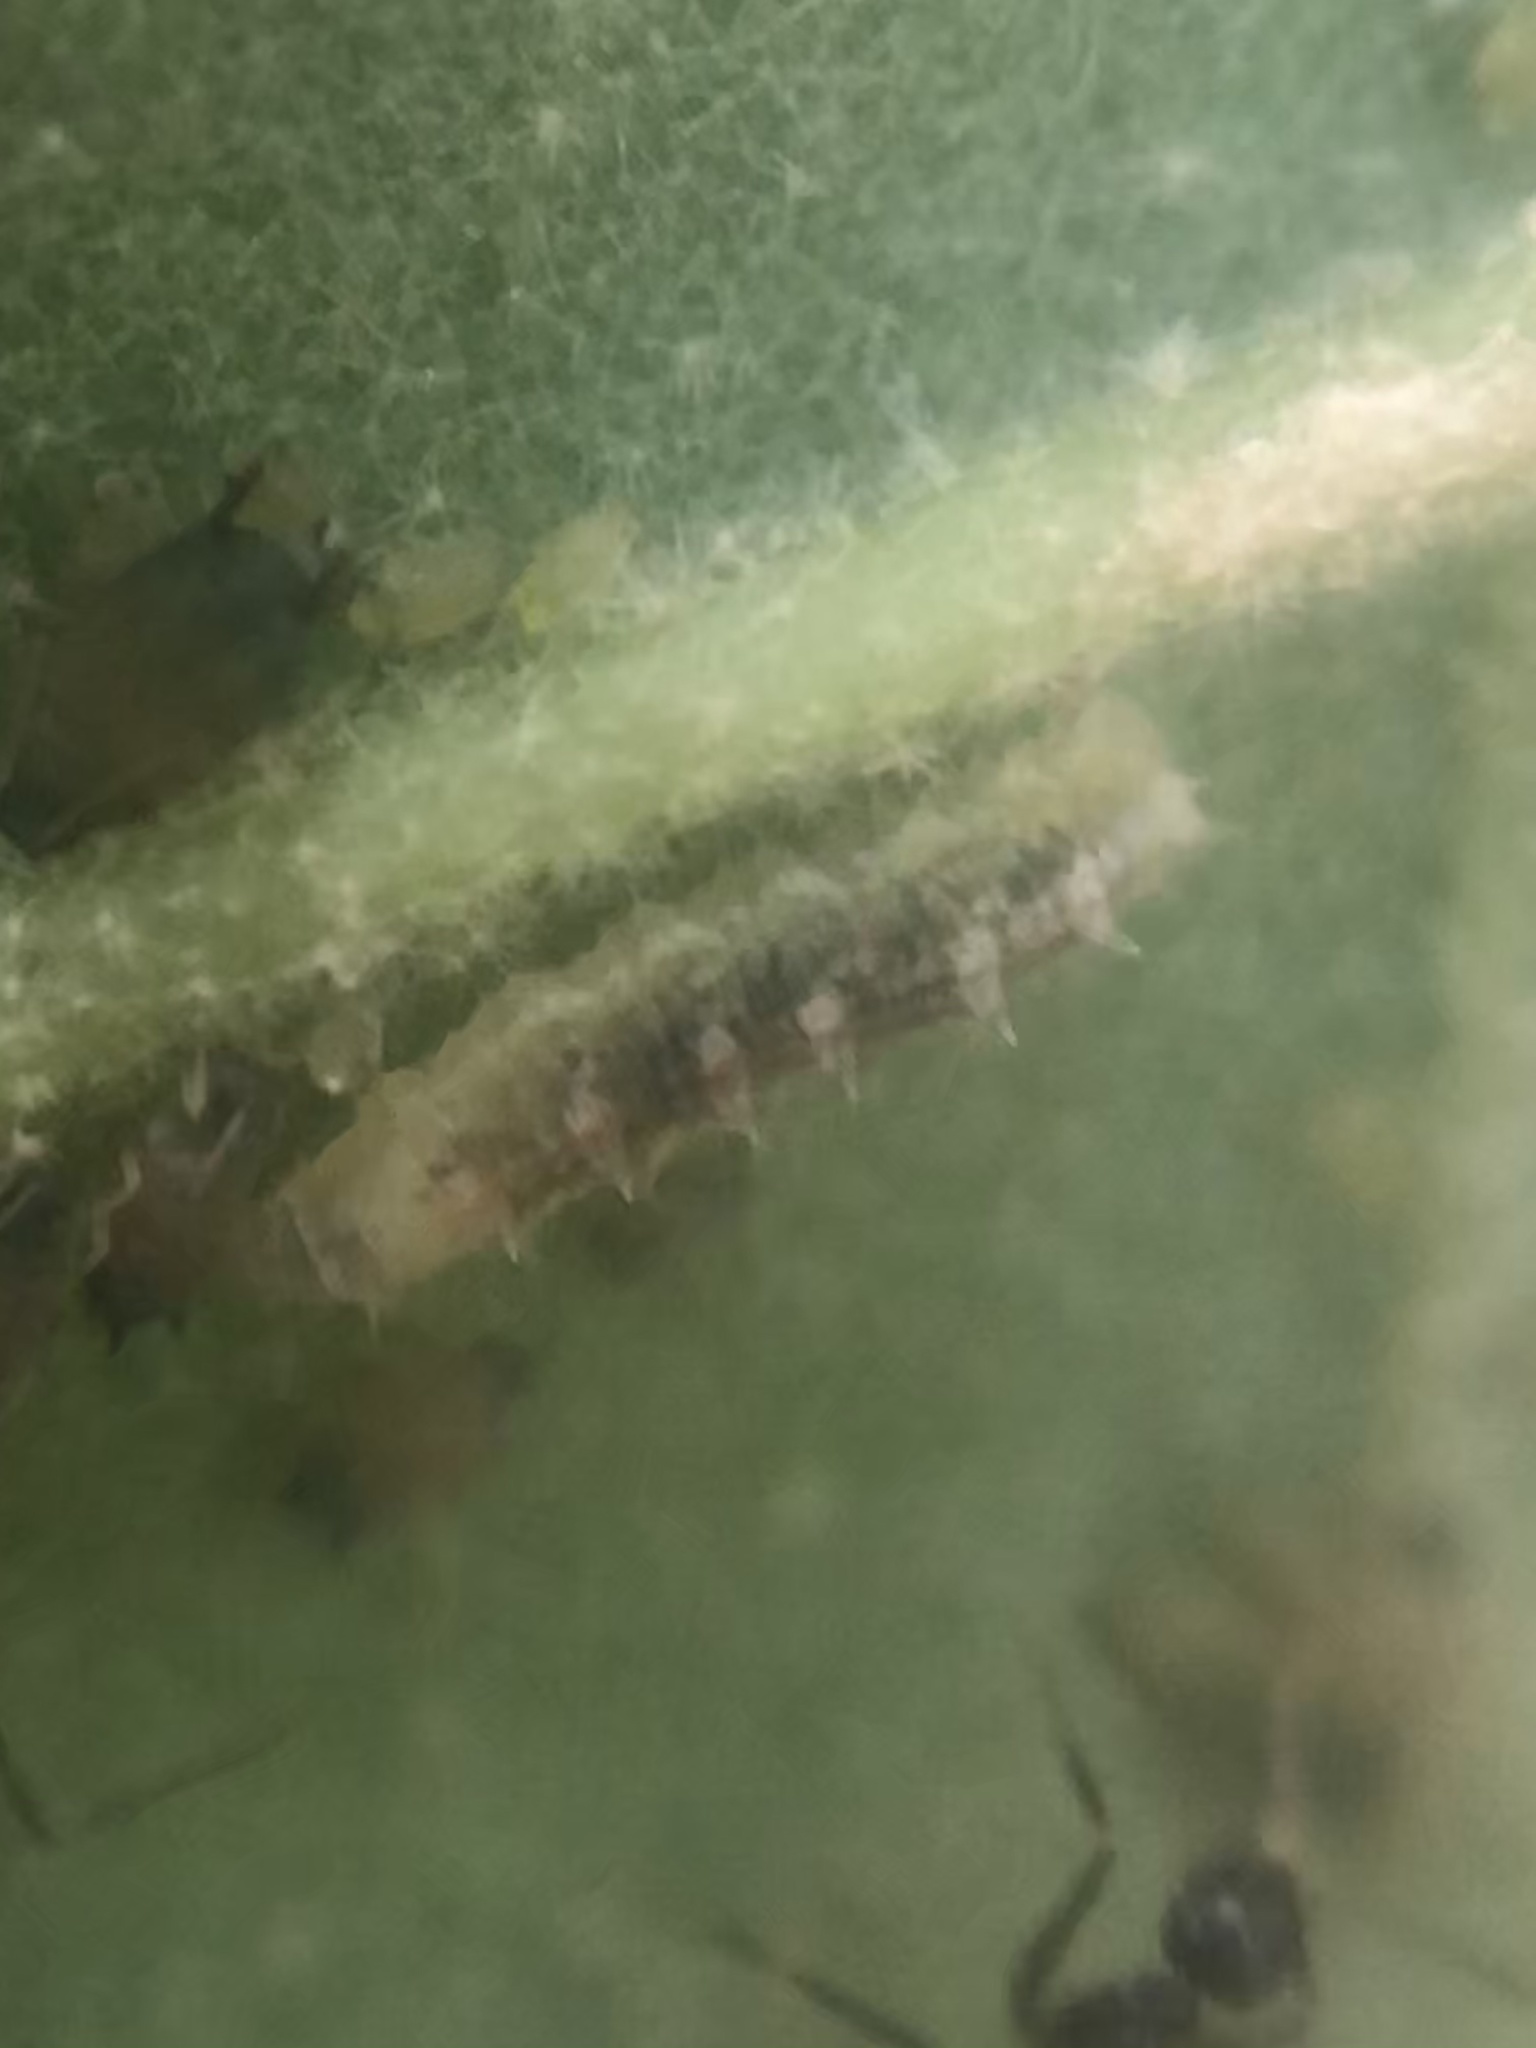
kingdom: Animalia
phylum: Arthropoda
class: Insecta
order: Diptera
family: Syrphidae
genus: Dioprosopa
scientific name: Dioprosopa clavatus
